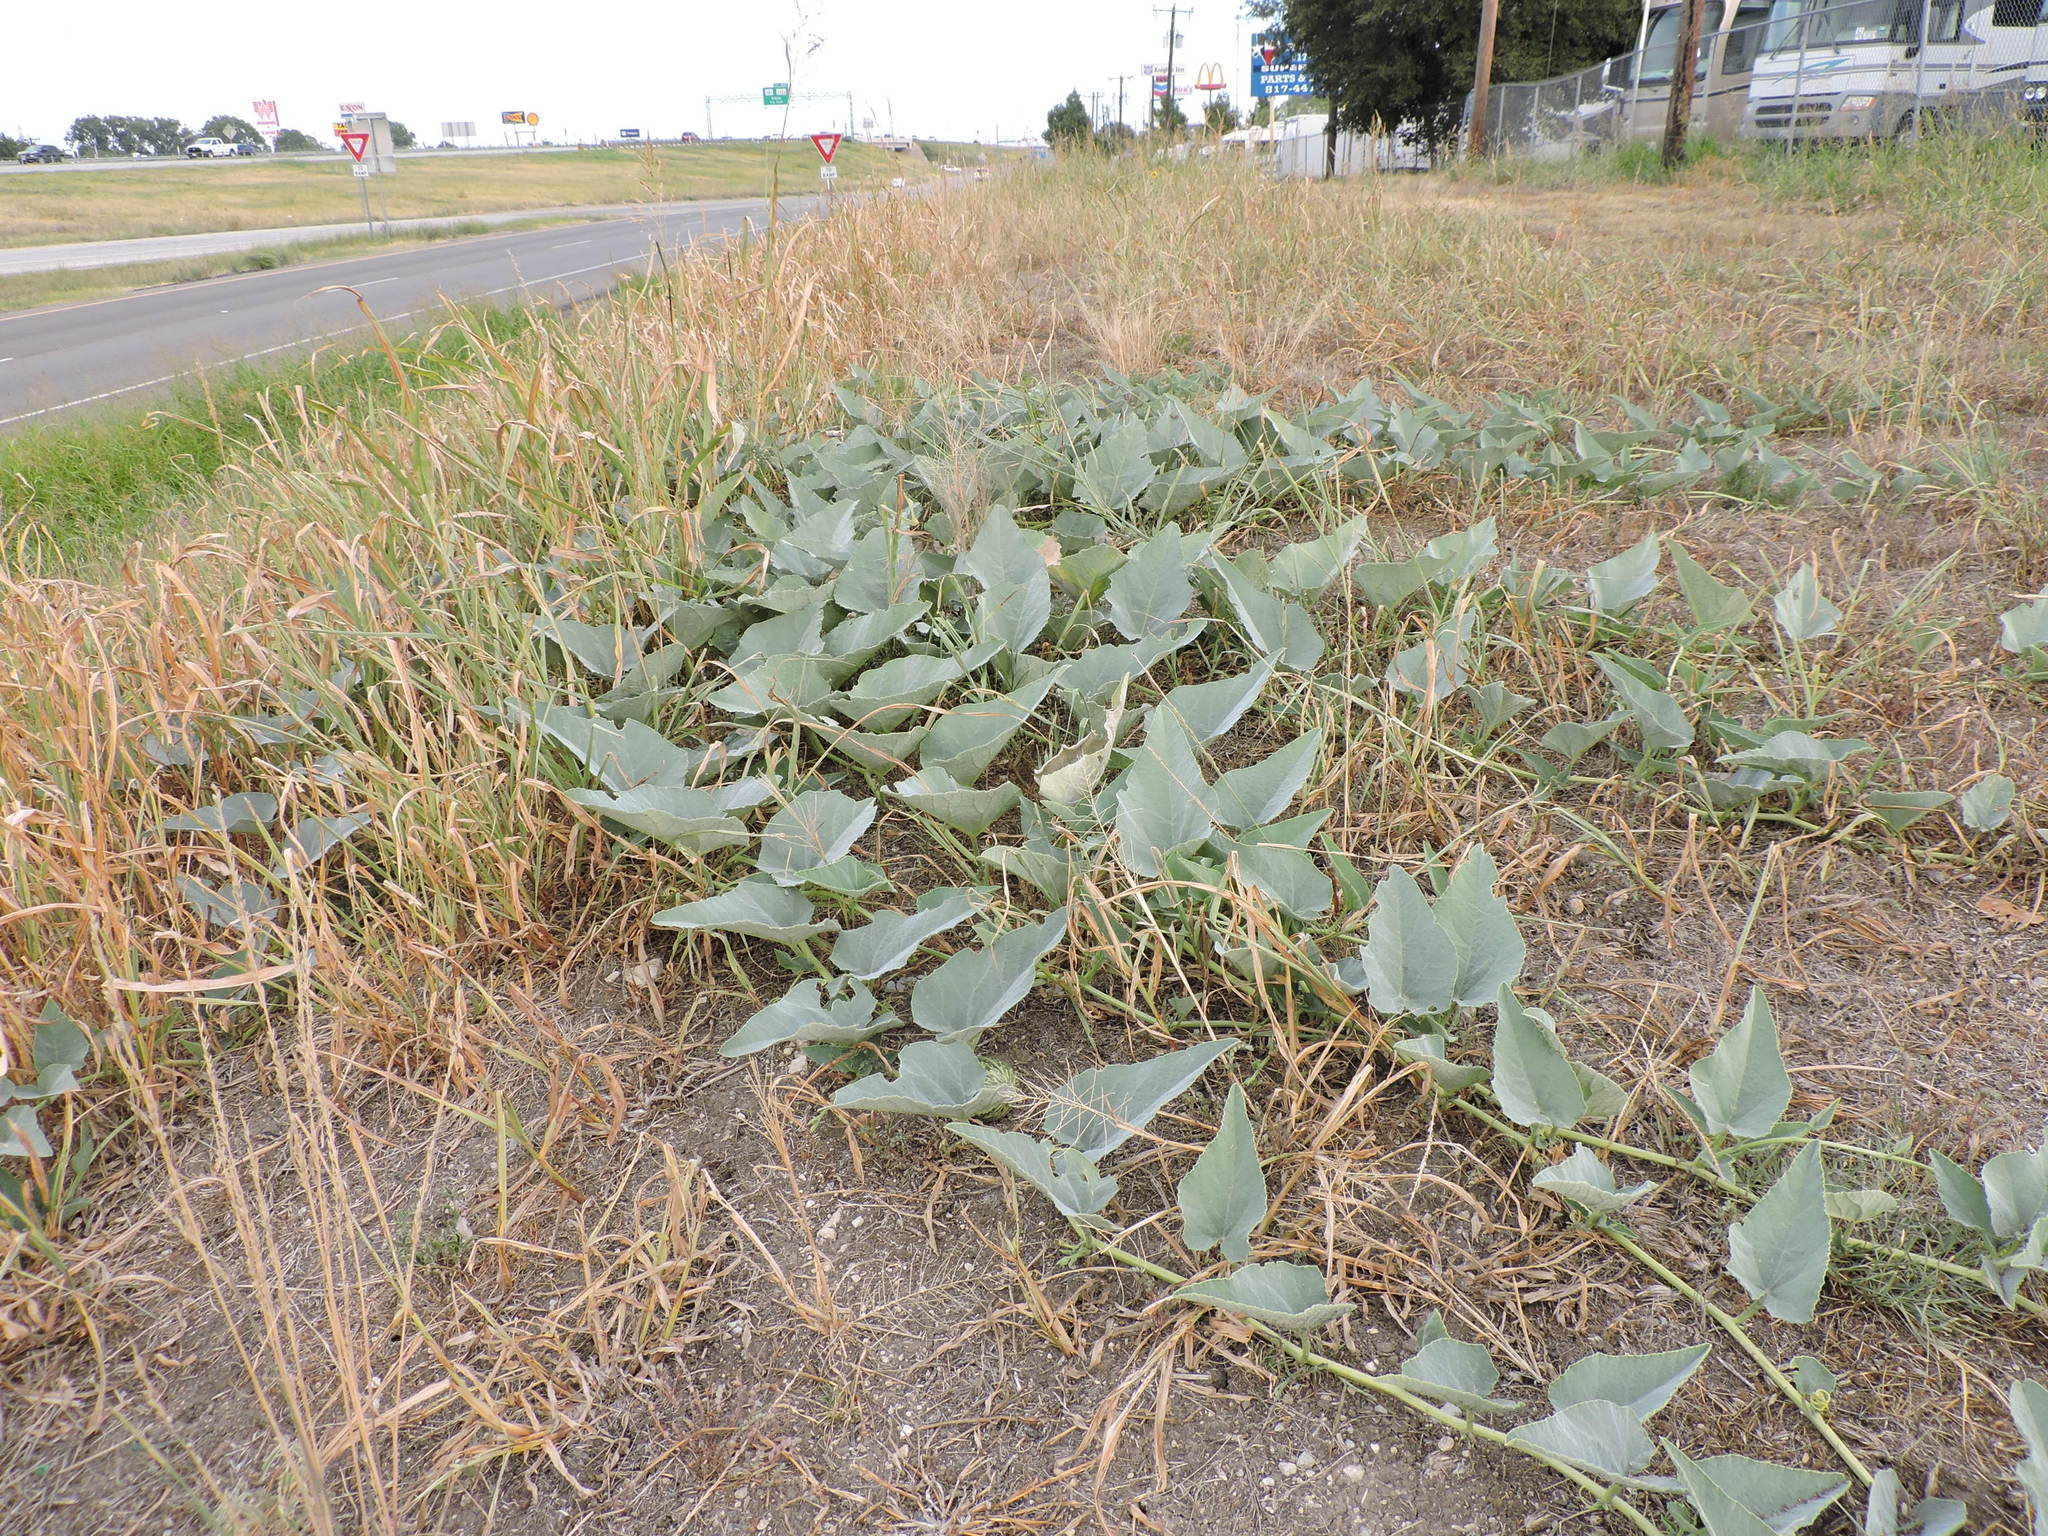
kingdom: Plantae
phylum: Tracheophyta
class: Magnoliopsida
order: Cucurbitales
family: Cucurbitaceae
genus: Cucurbita
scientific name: Cucurbita foetidissima
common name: Buffalo gourd
